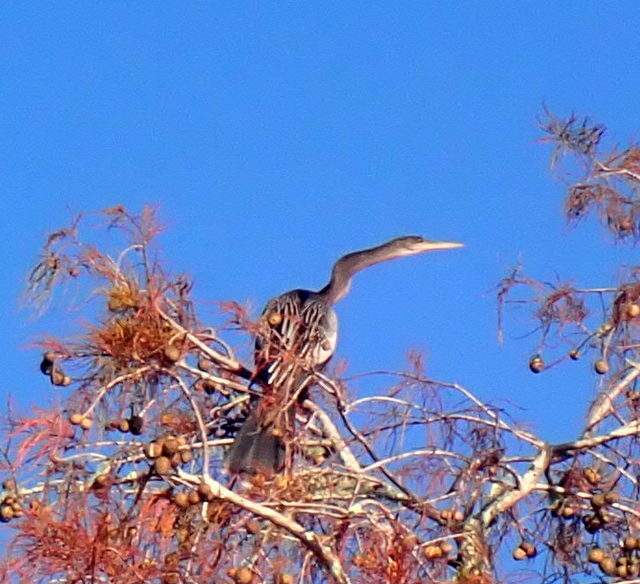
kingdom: Animalia
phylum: Chordata
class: Aves
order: Suliformes
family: Anhingidae
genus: Anhinga
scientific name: Anhinga anhinga
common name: Anhinga
